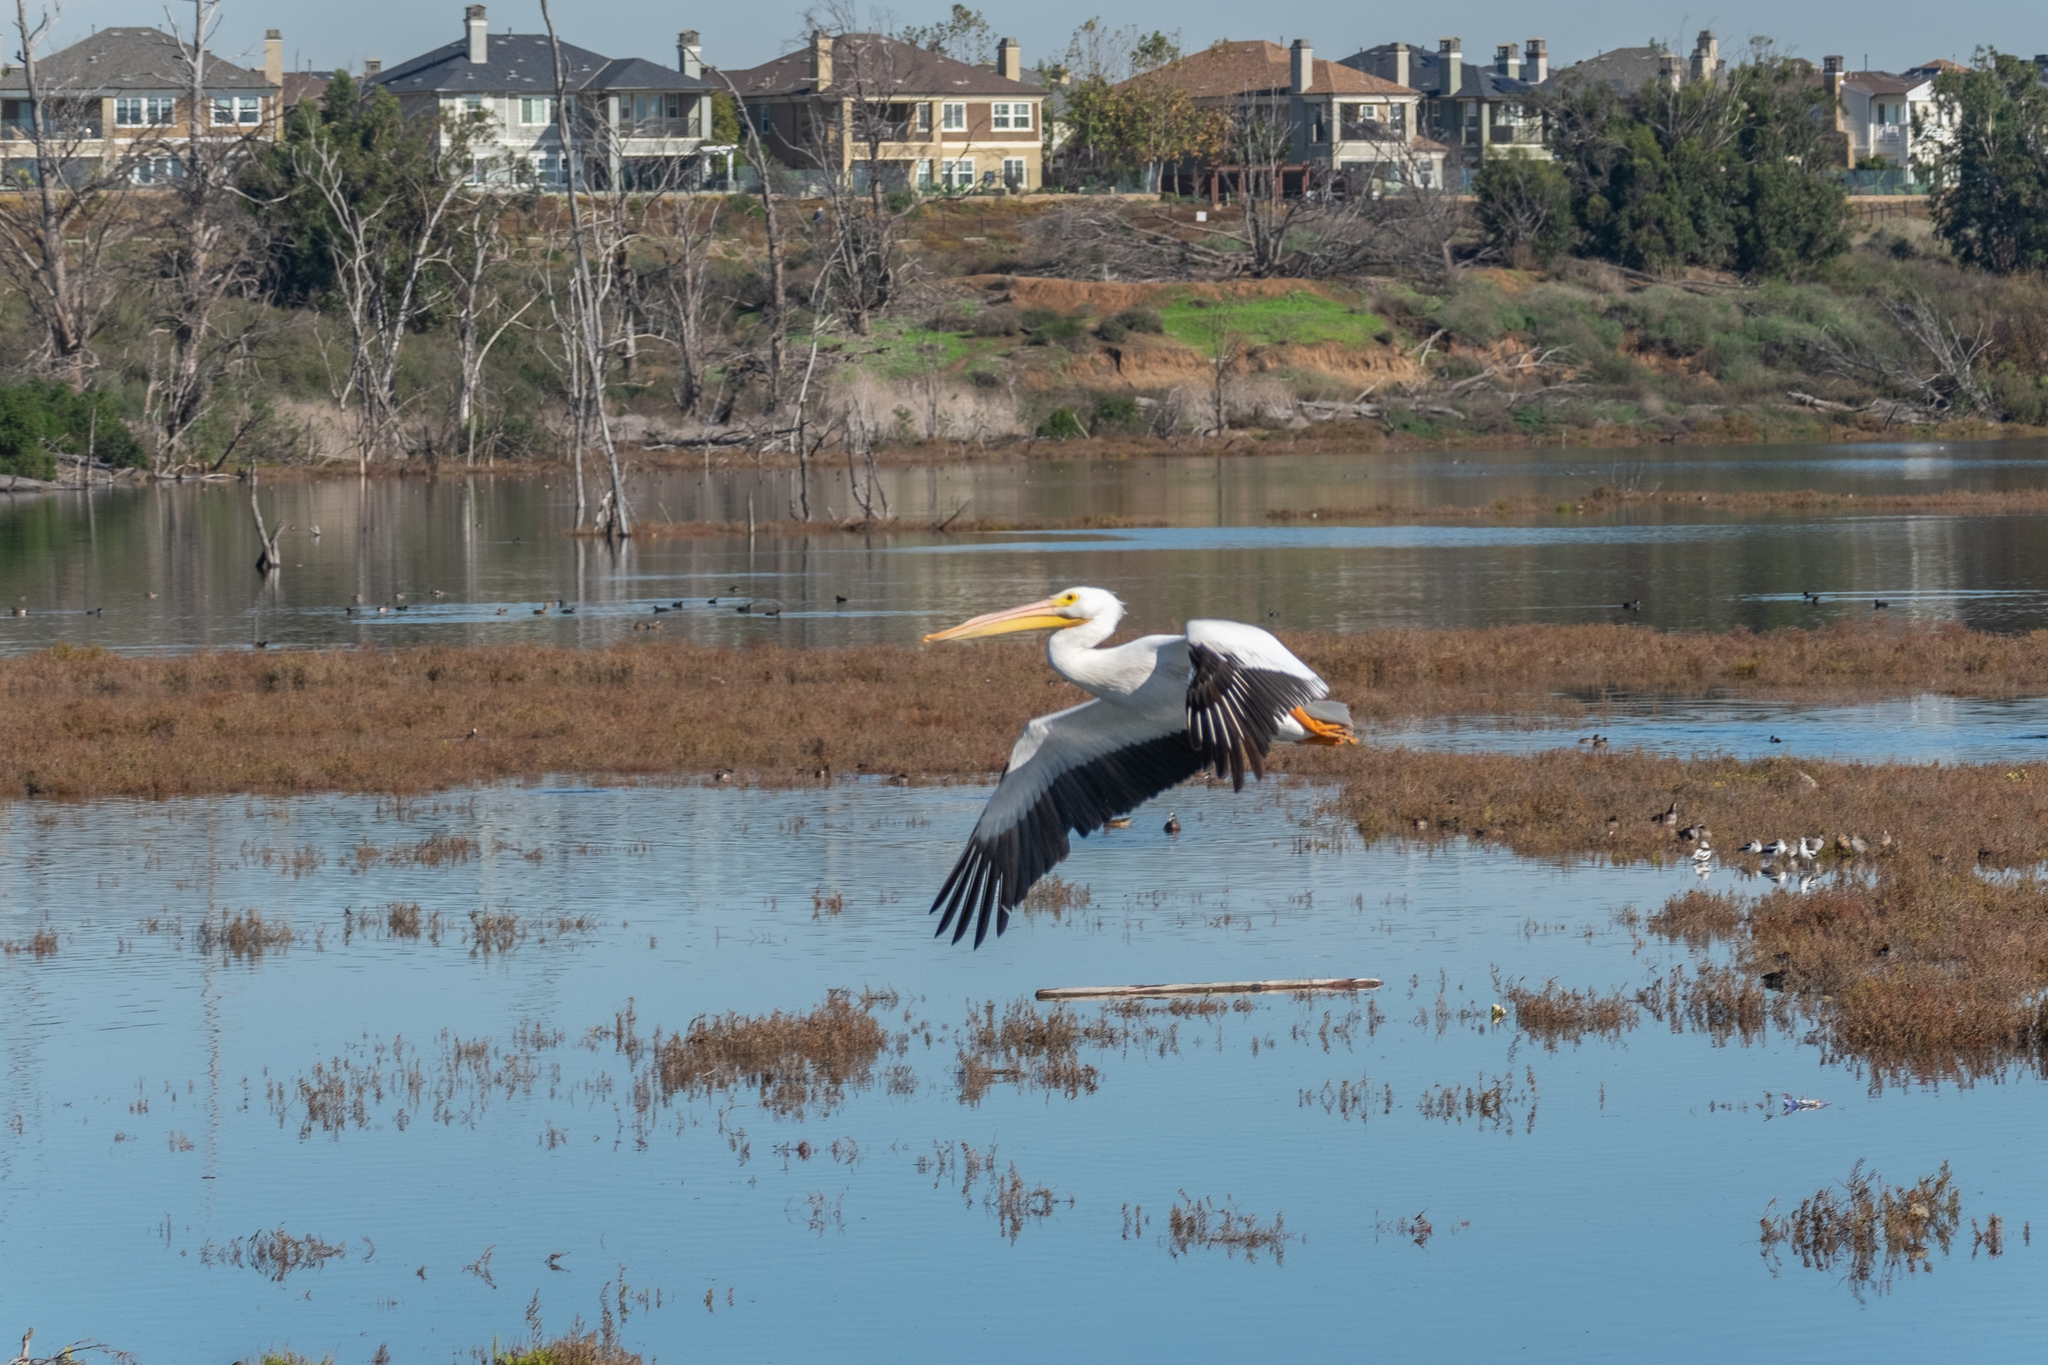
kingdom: Animalia
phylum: Chordata
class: Aves
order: Pelecaniformes
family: Pelecanidae
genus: Pelecanus
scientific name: Pelecanus erythrorhynchos
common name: American white pelican
